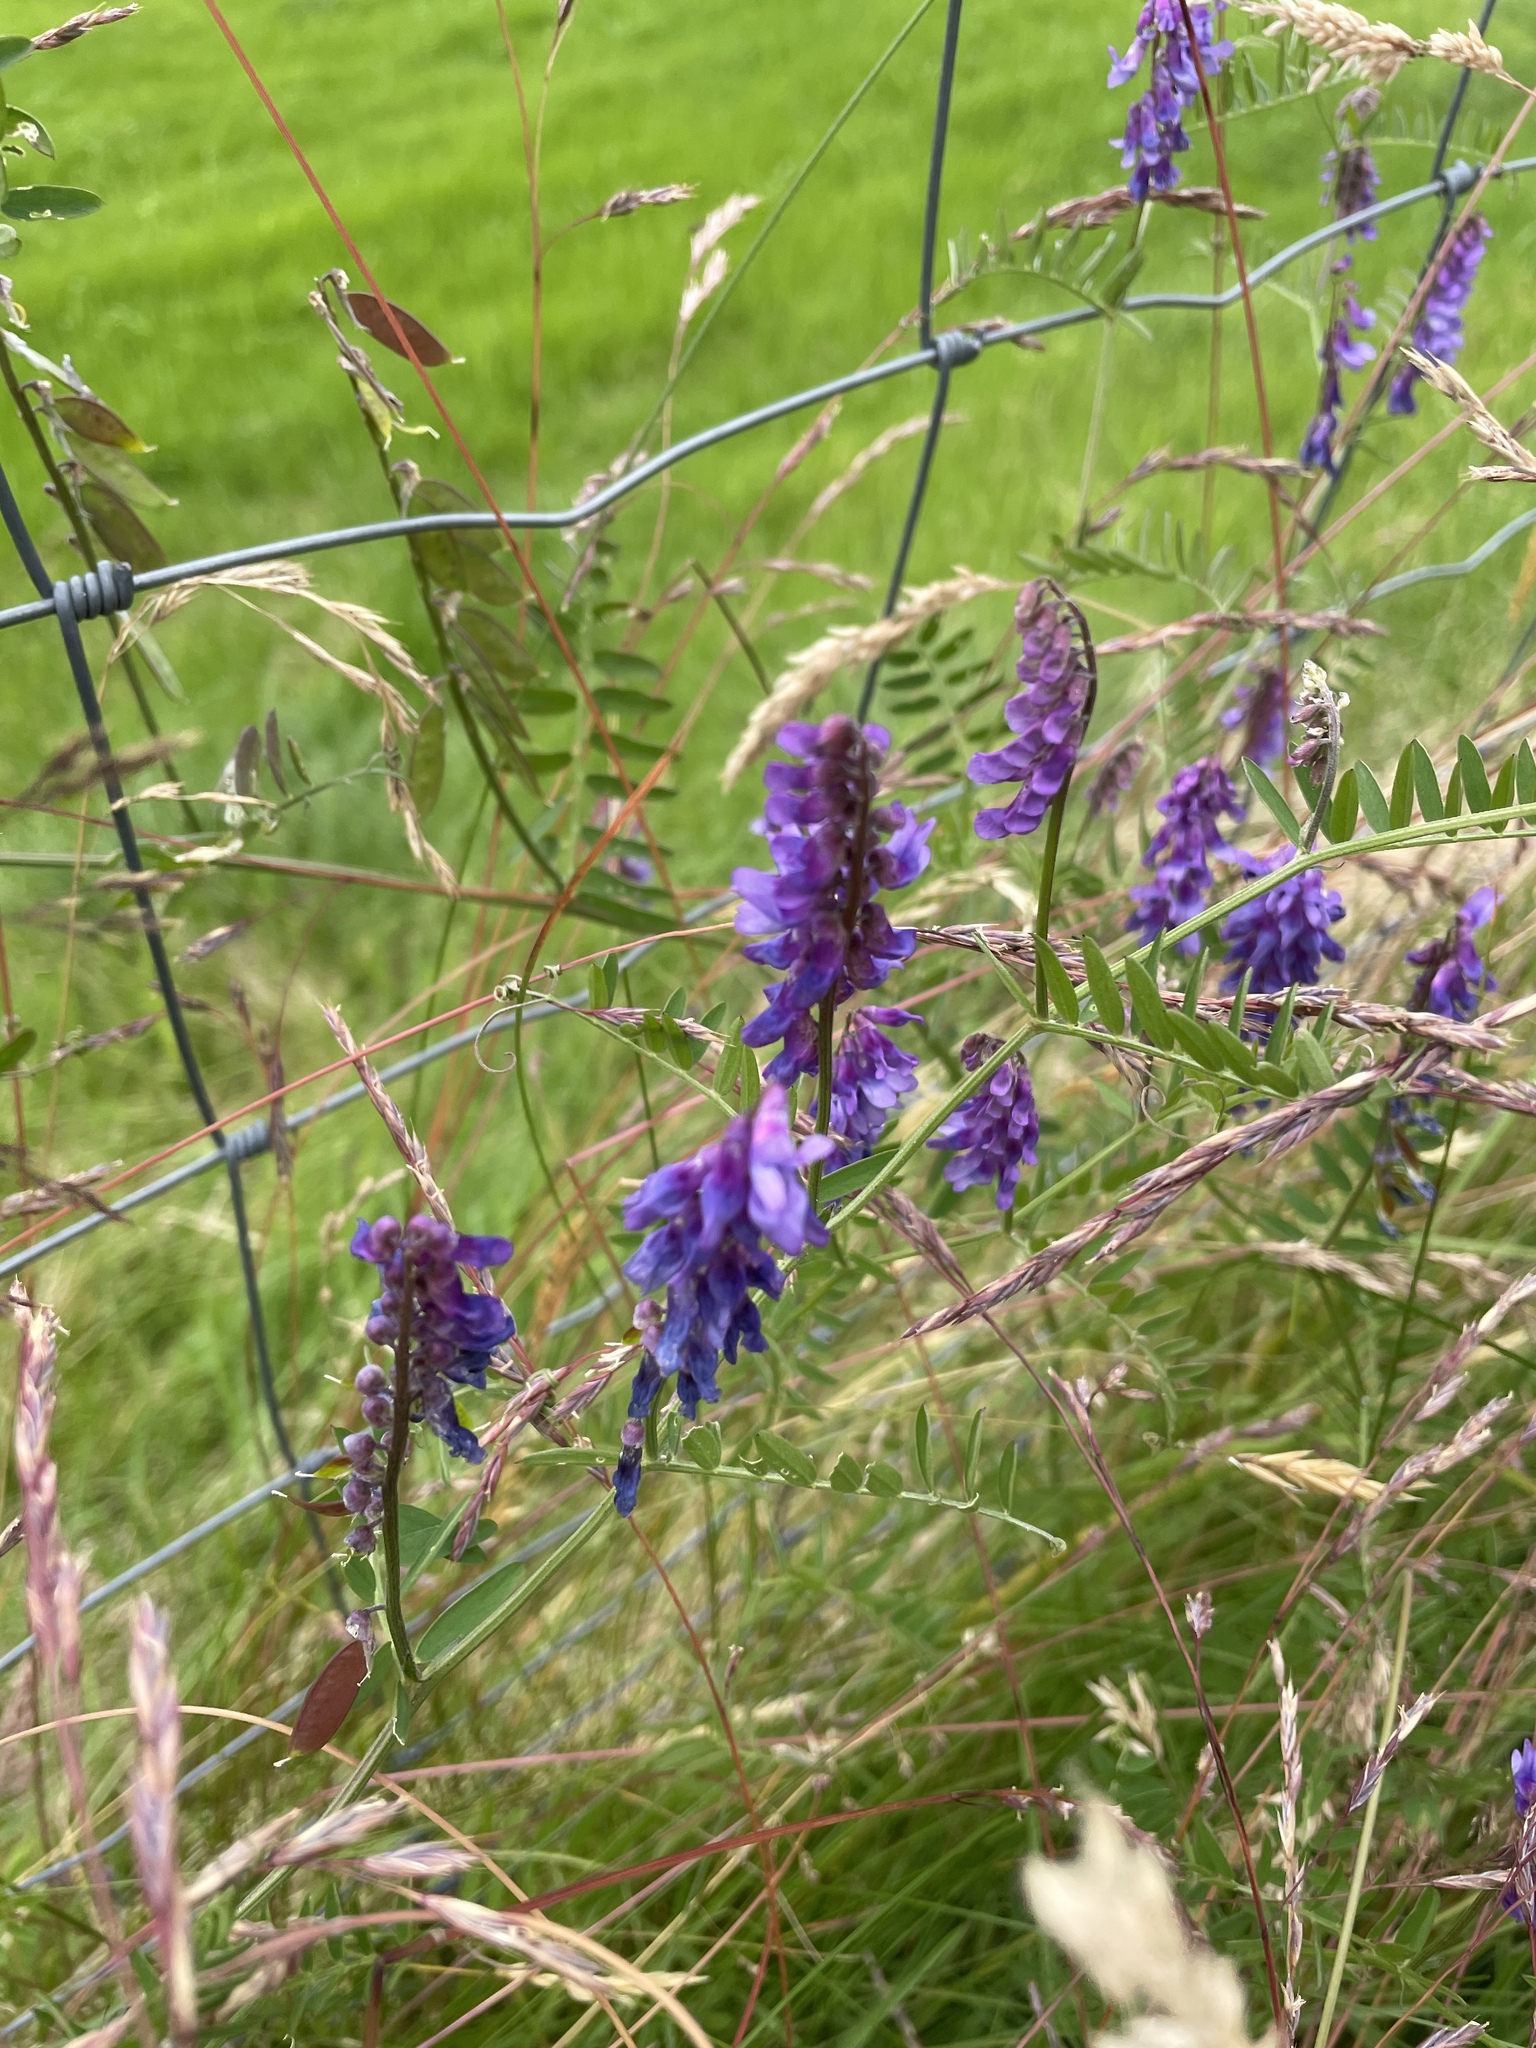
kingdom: Plantae
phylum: Tracheophyta
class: Magnoliopsida
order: Fabales
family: Fabaceae
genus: Vicia
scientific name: Vicia cracca
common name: Bird vetch
